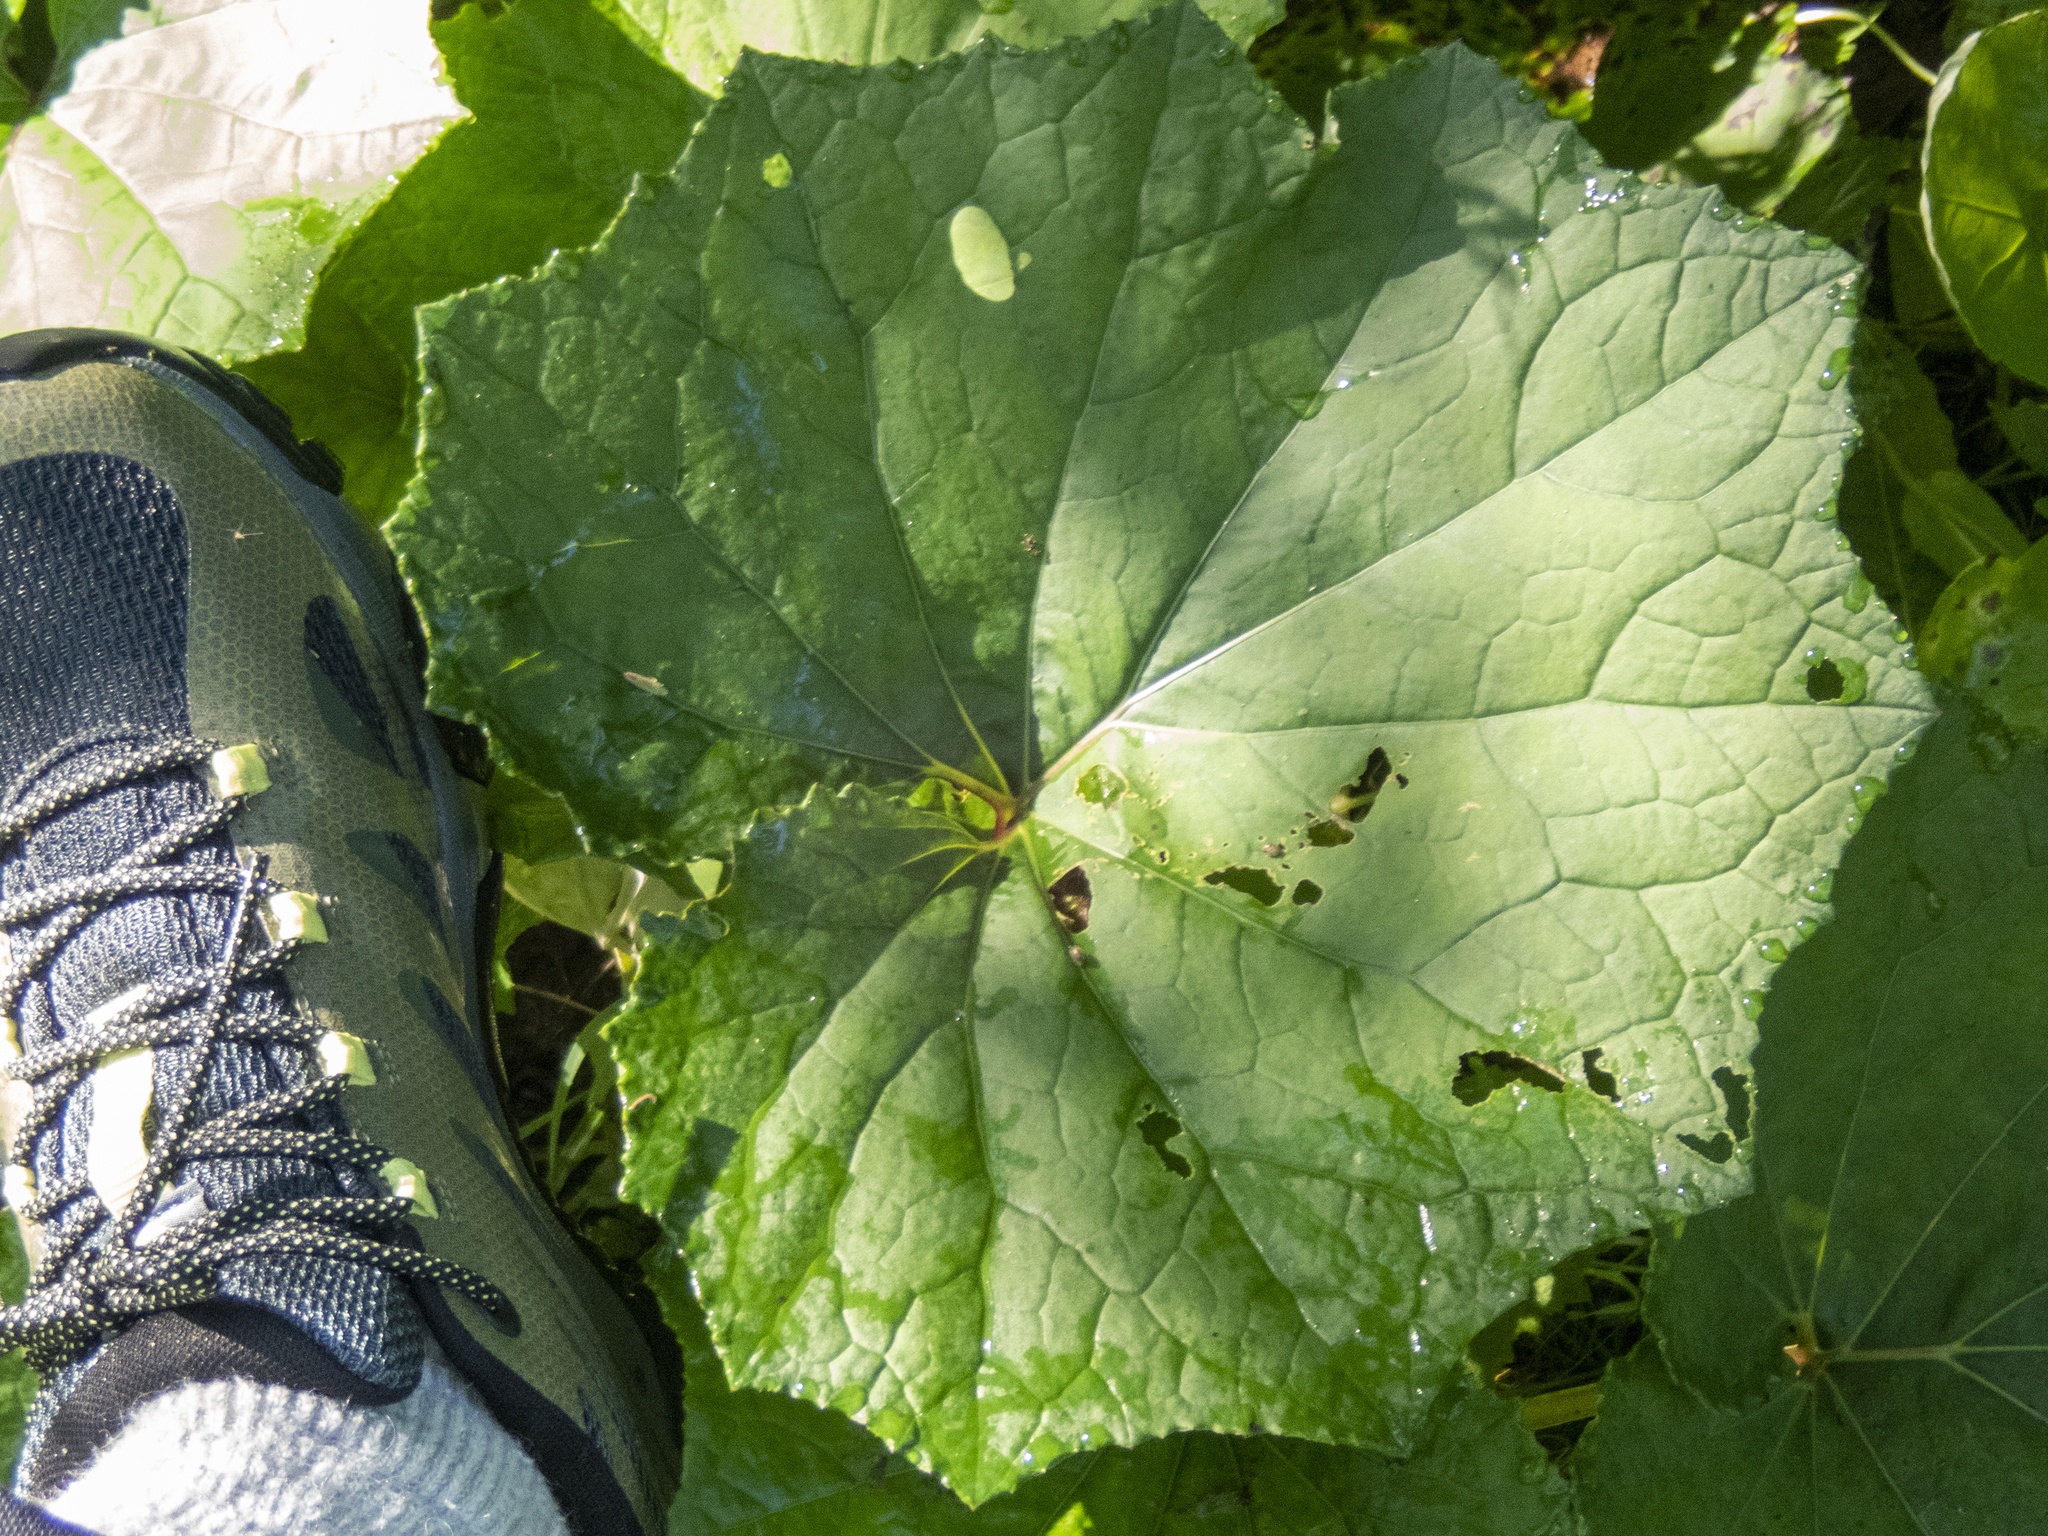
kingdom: Plantae
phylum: Tracheophyta
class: Magnoliopsida
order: Asterales
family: Asteraceae
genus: Tussilago
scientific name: Tussilago farfara
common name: Coltsfoot
